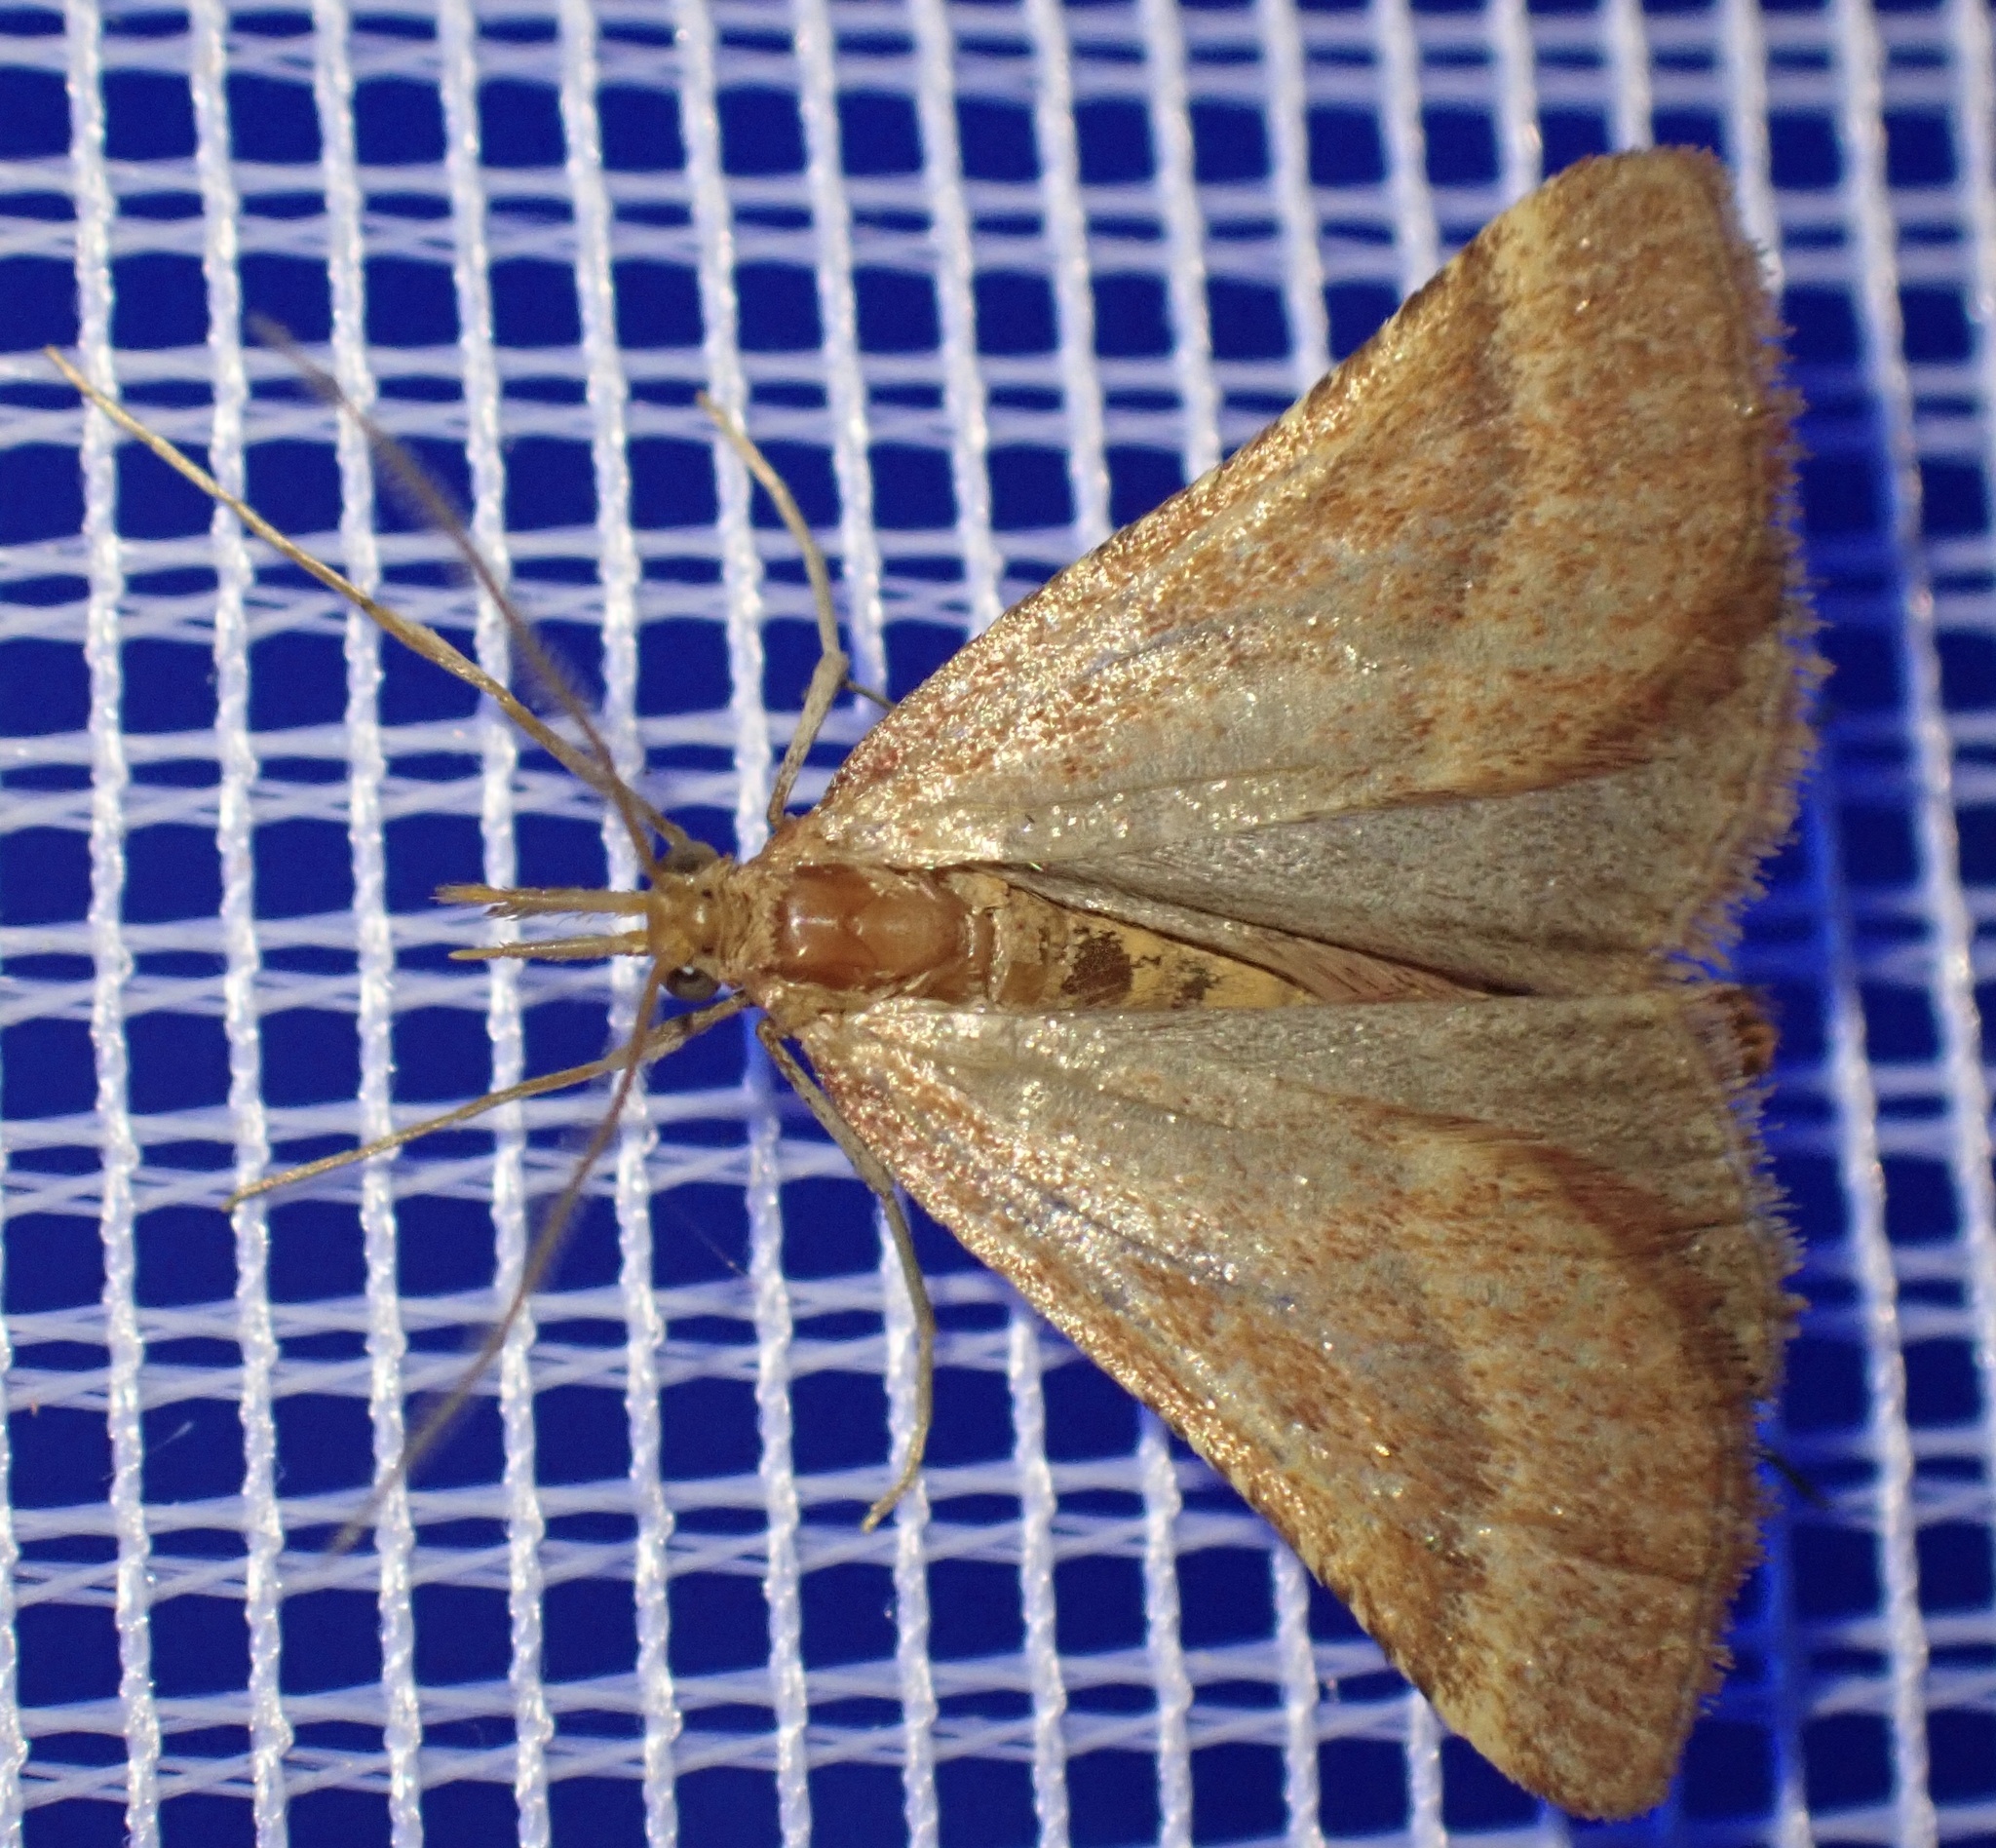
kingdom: Animalia
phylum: Arthropoda
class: Insecta
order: Lepidoptera
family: Pyralidae
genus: Synaphe
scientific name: Synaphe punctalis
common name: Long-legged tabby
